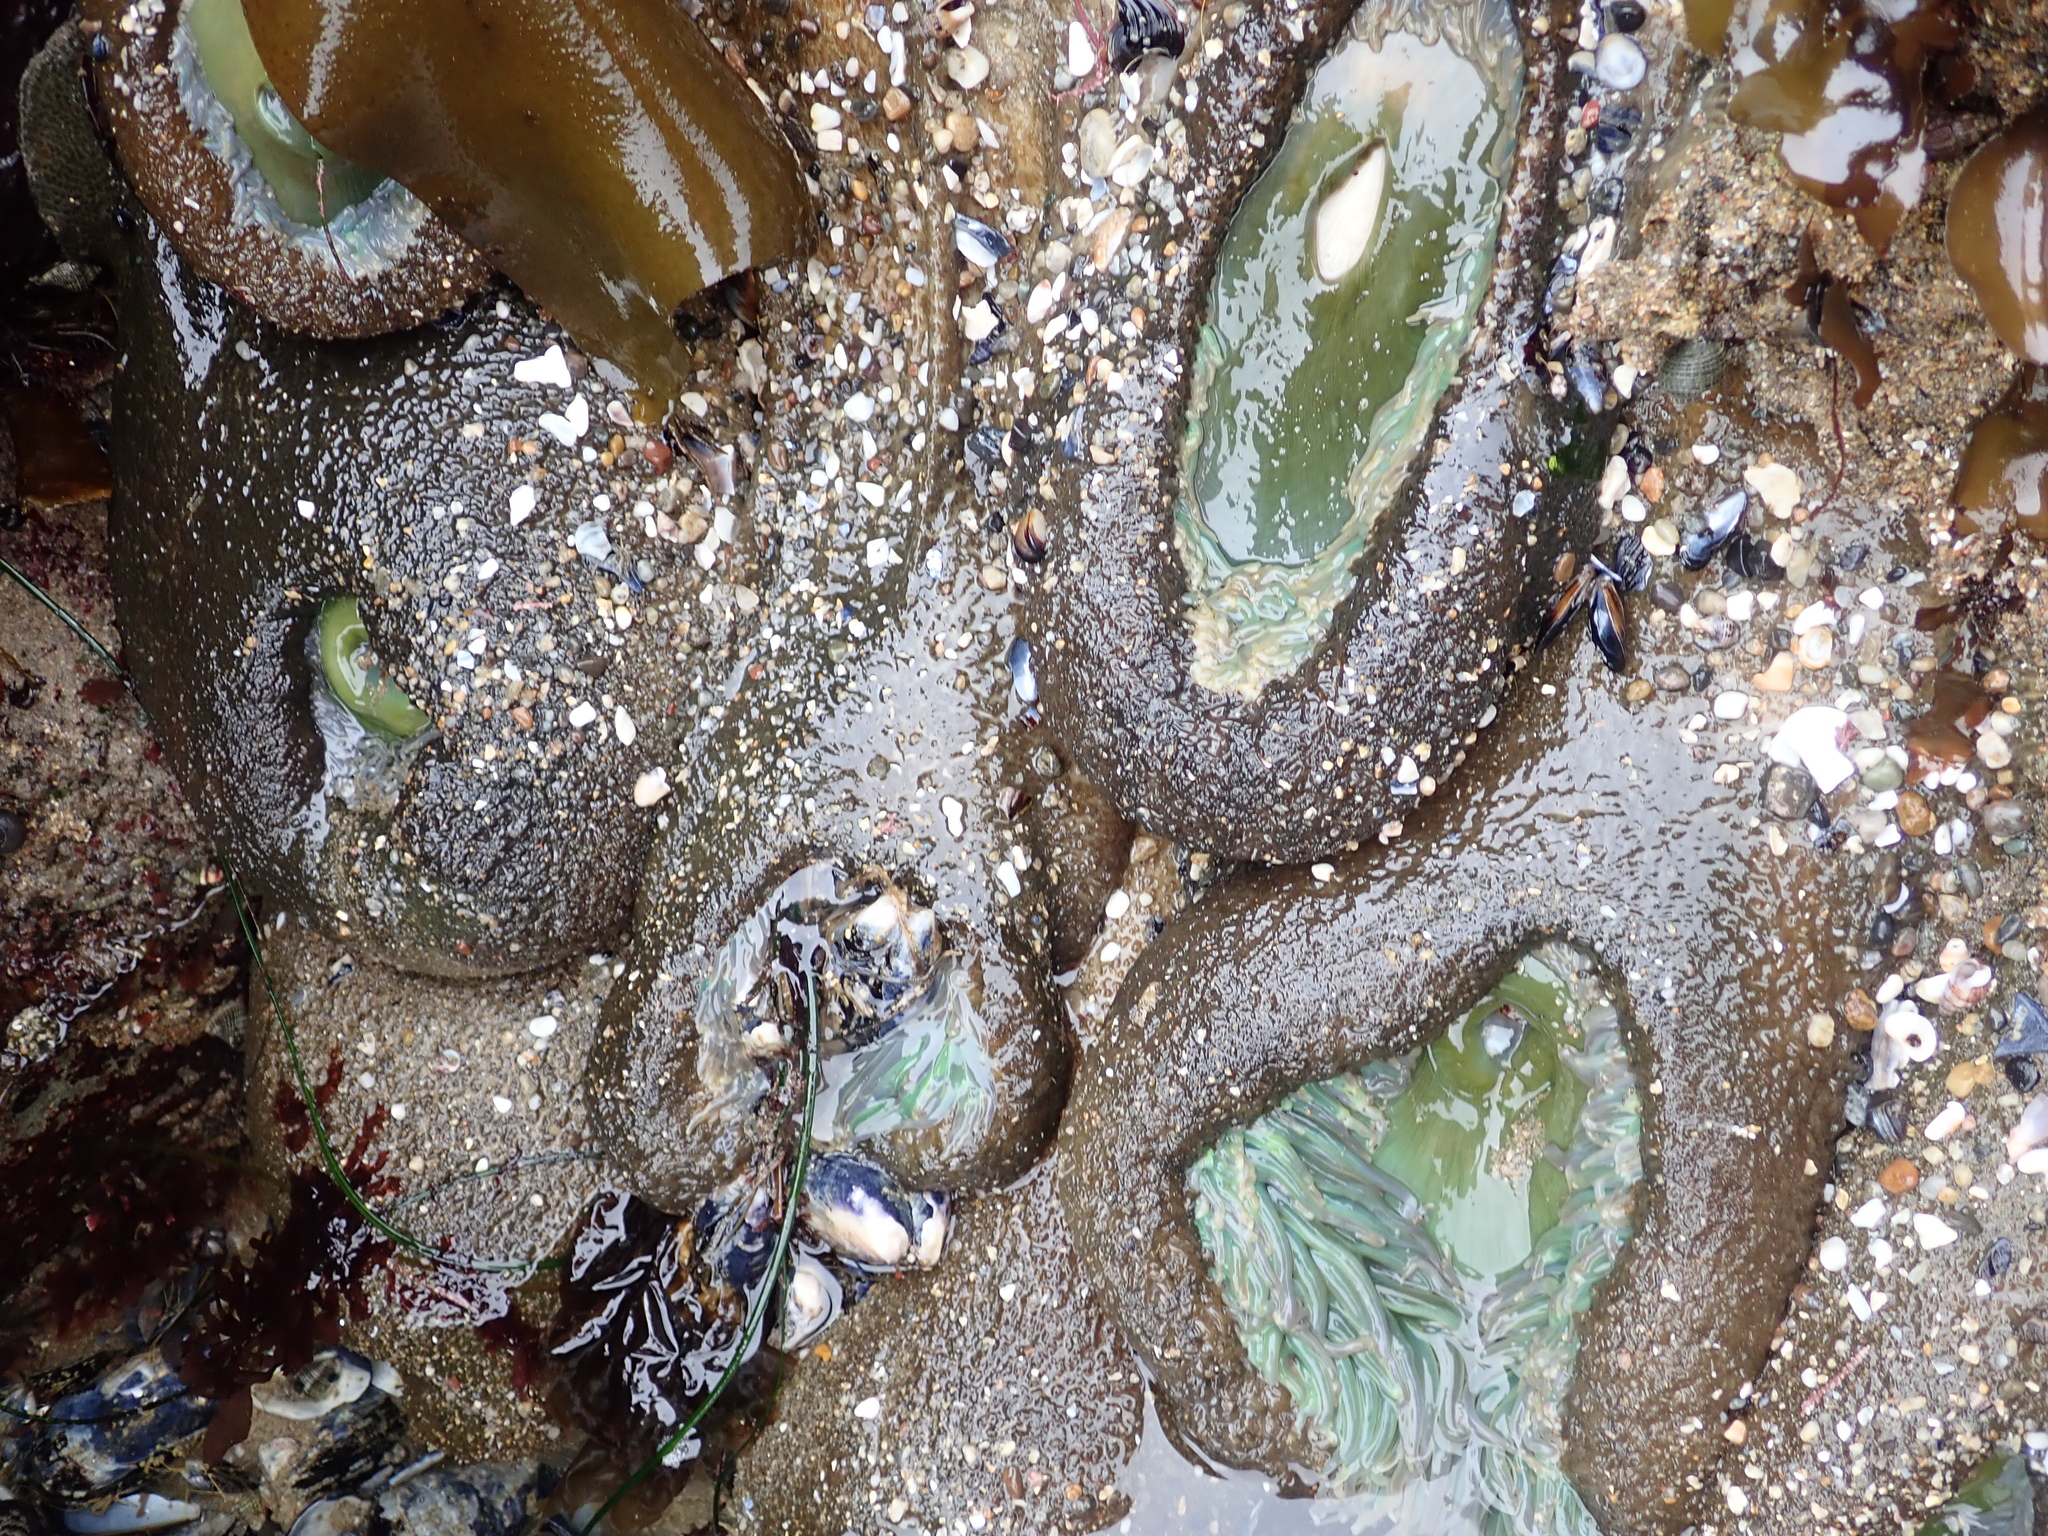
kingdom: Animalia
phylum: Cnidaria
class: Anthozoa
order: Actiniaria
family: Actiniidae
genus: Anthopleura
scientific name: Anthopleura xanthogrammica
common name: Giant green anemone
